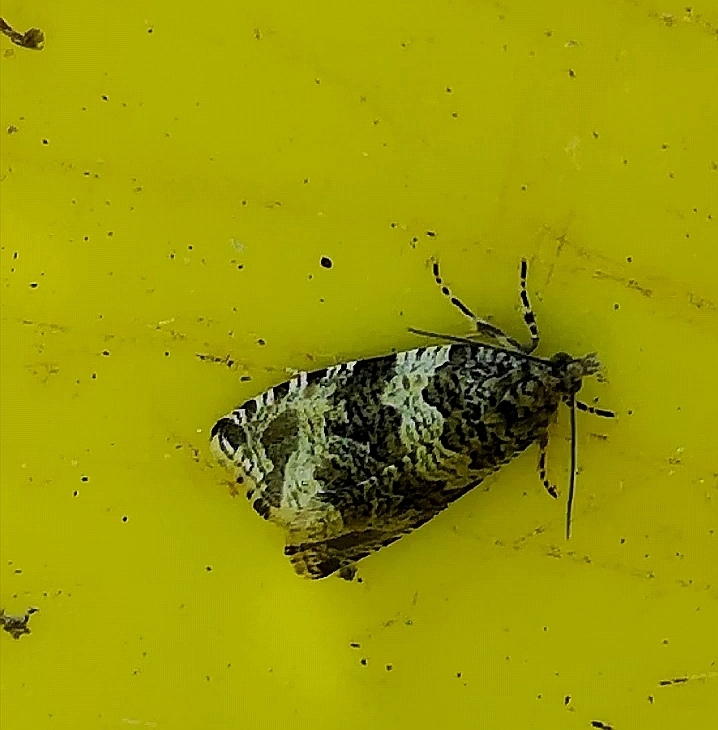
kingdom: Animalia
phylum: Arthropoda
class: Insecta
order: Lepidoptera
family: Tortricidae
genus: Syricoris
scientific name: Syricoris rivulana
